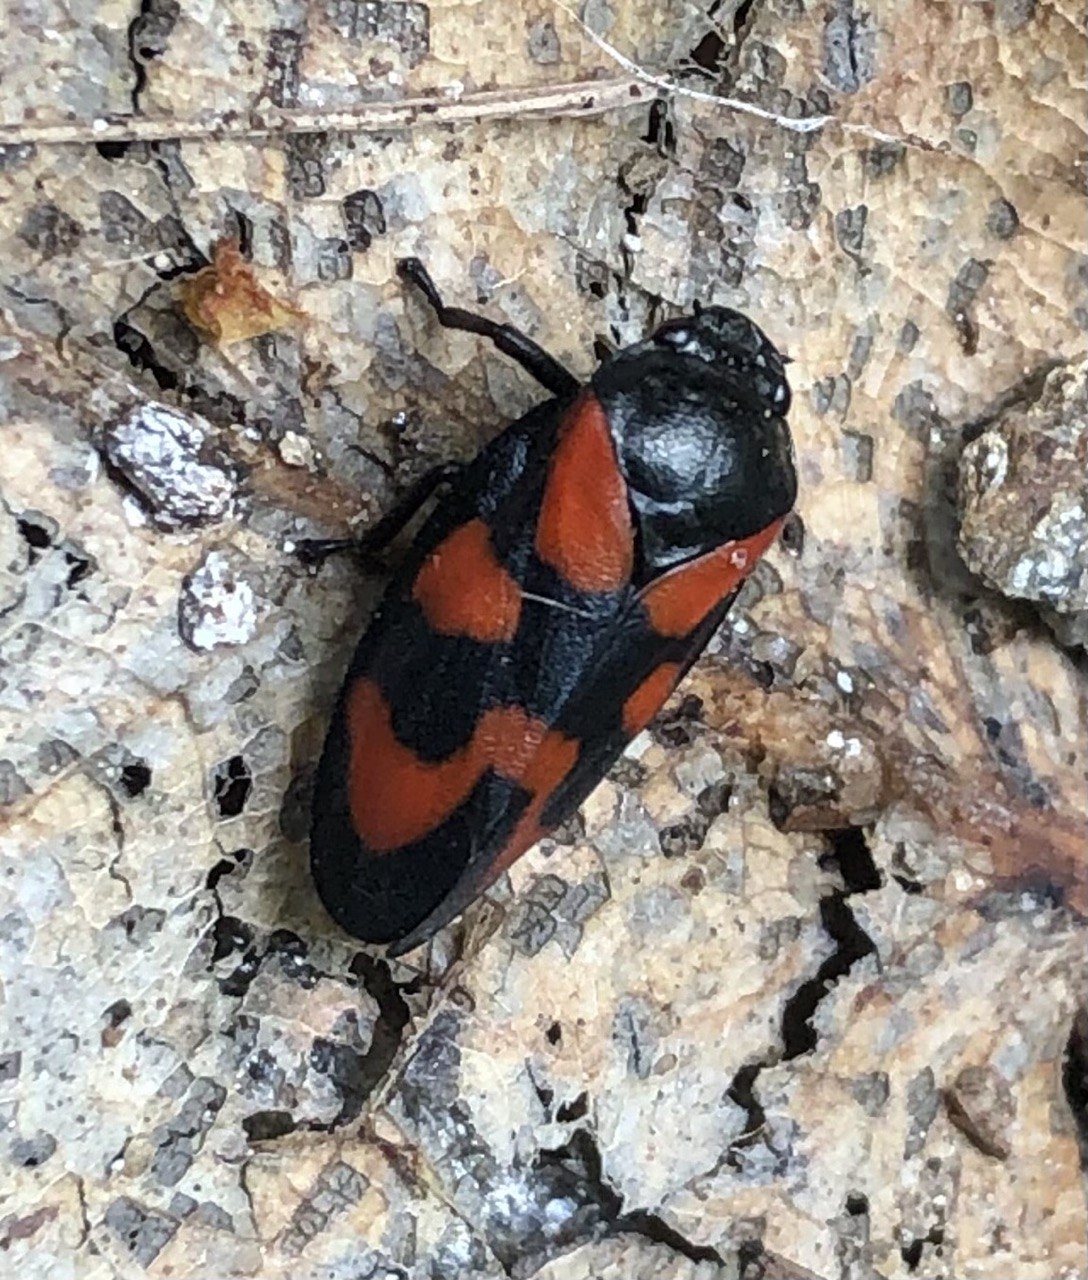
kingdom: Animalia
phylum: Arthropoda
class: Insecta
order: Hemiptera
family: Cercopidae
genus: Cercopis
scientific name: Cercopis vulnerata
